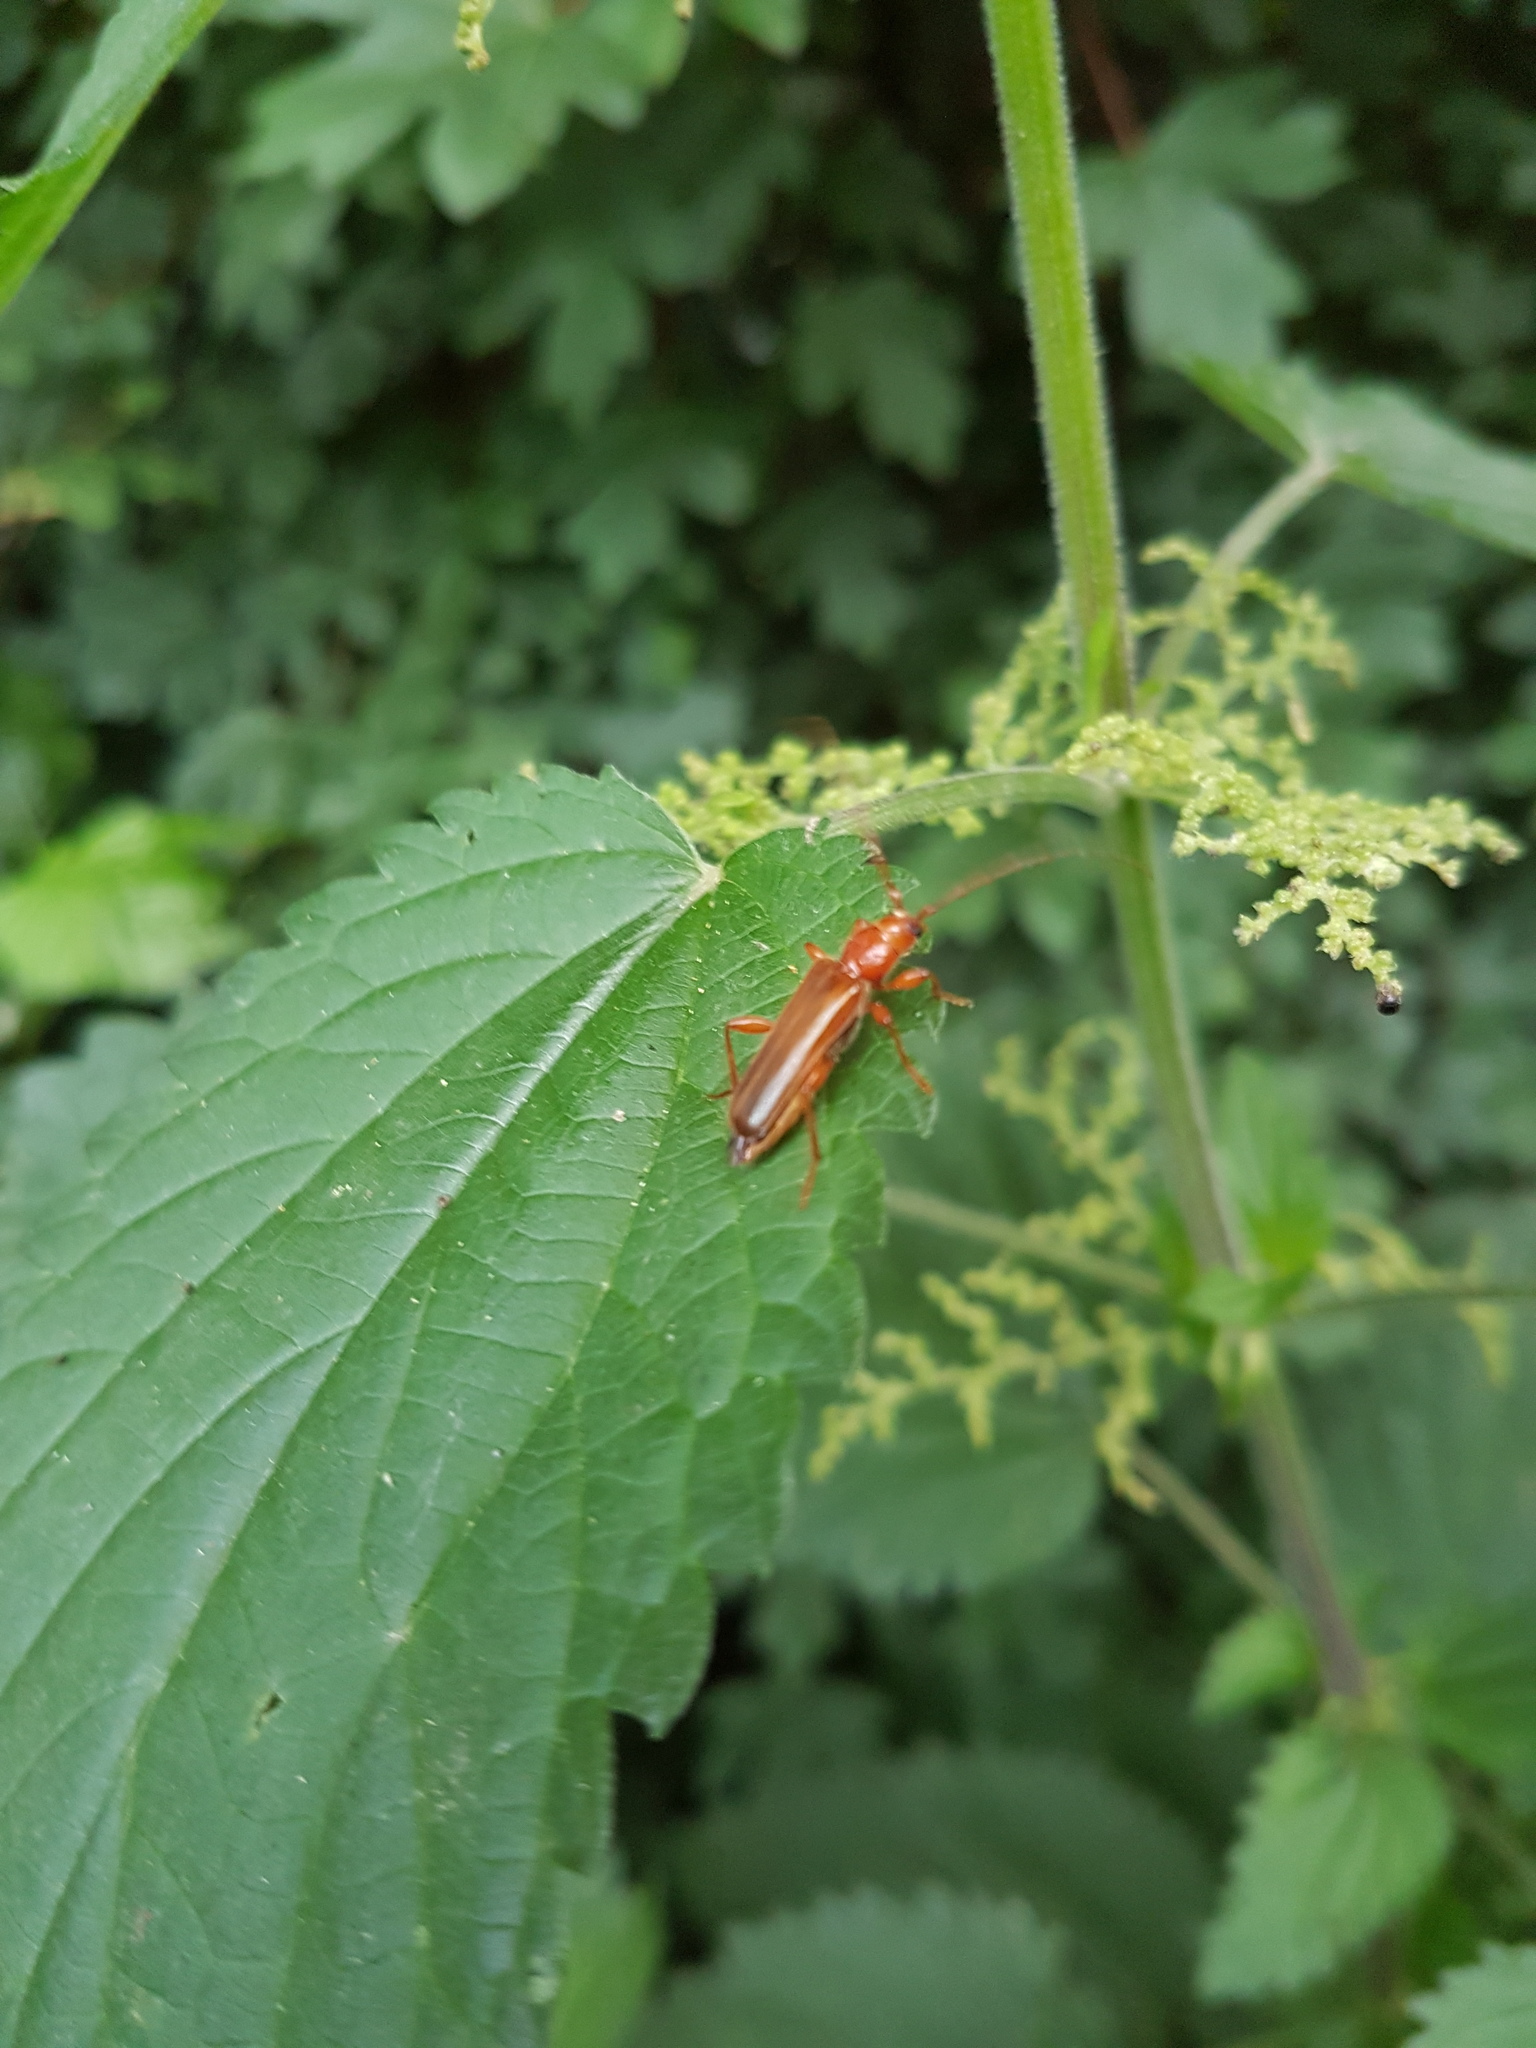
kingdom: Animalia
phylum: Arthropoda
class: Insecta
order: Coleoptera
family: Cerambycidae
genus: Phymatodes
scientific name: Phymatodes testaceus
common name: Long-horned beetle
